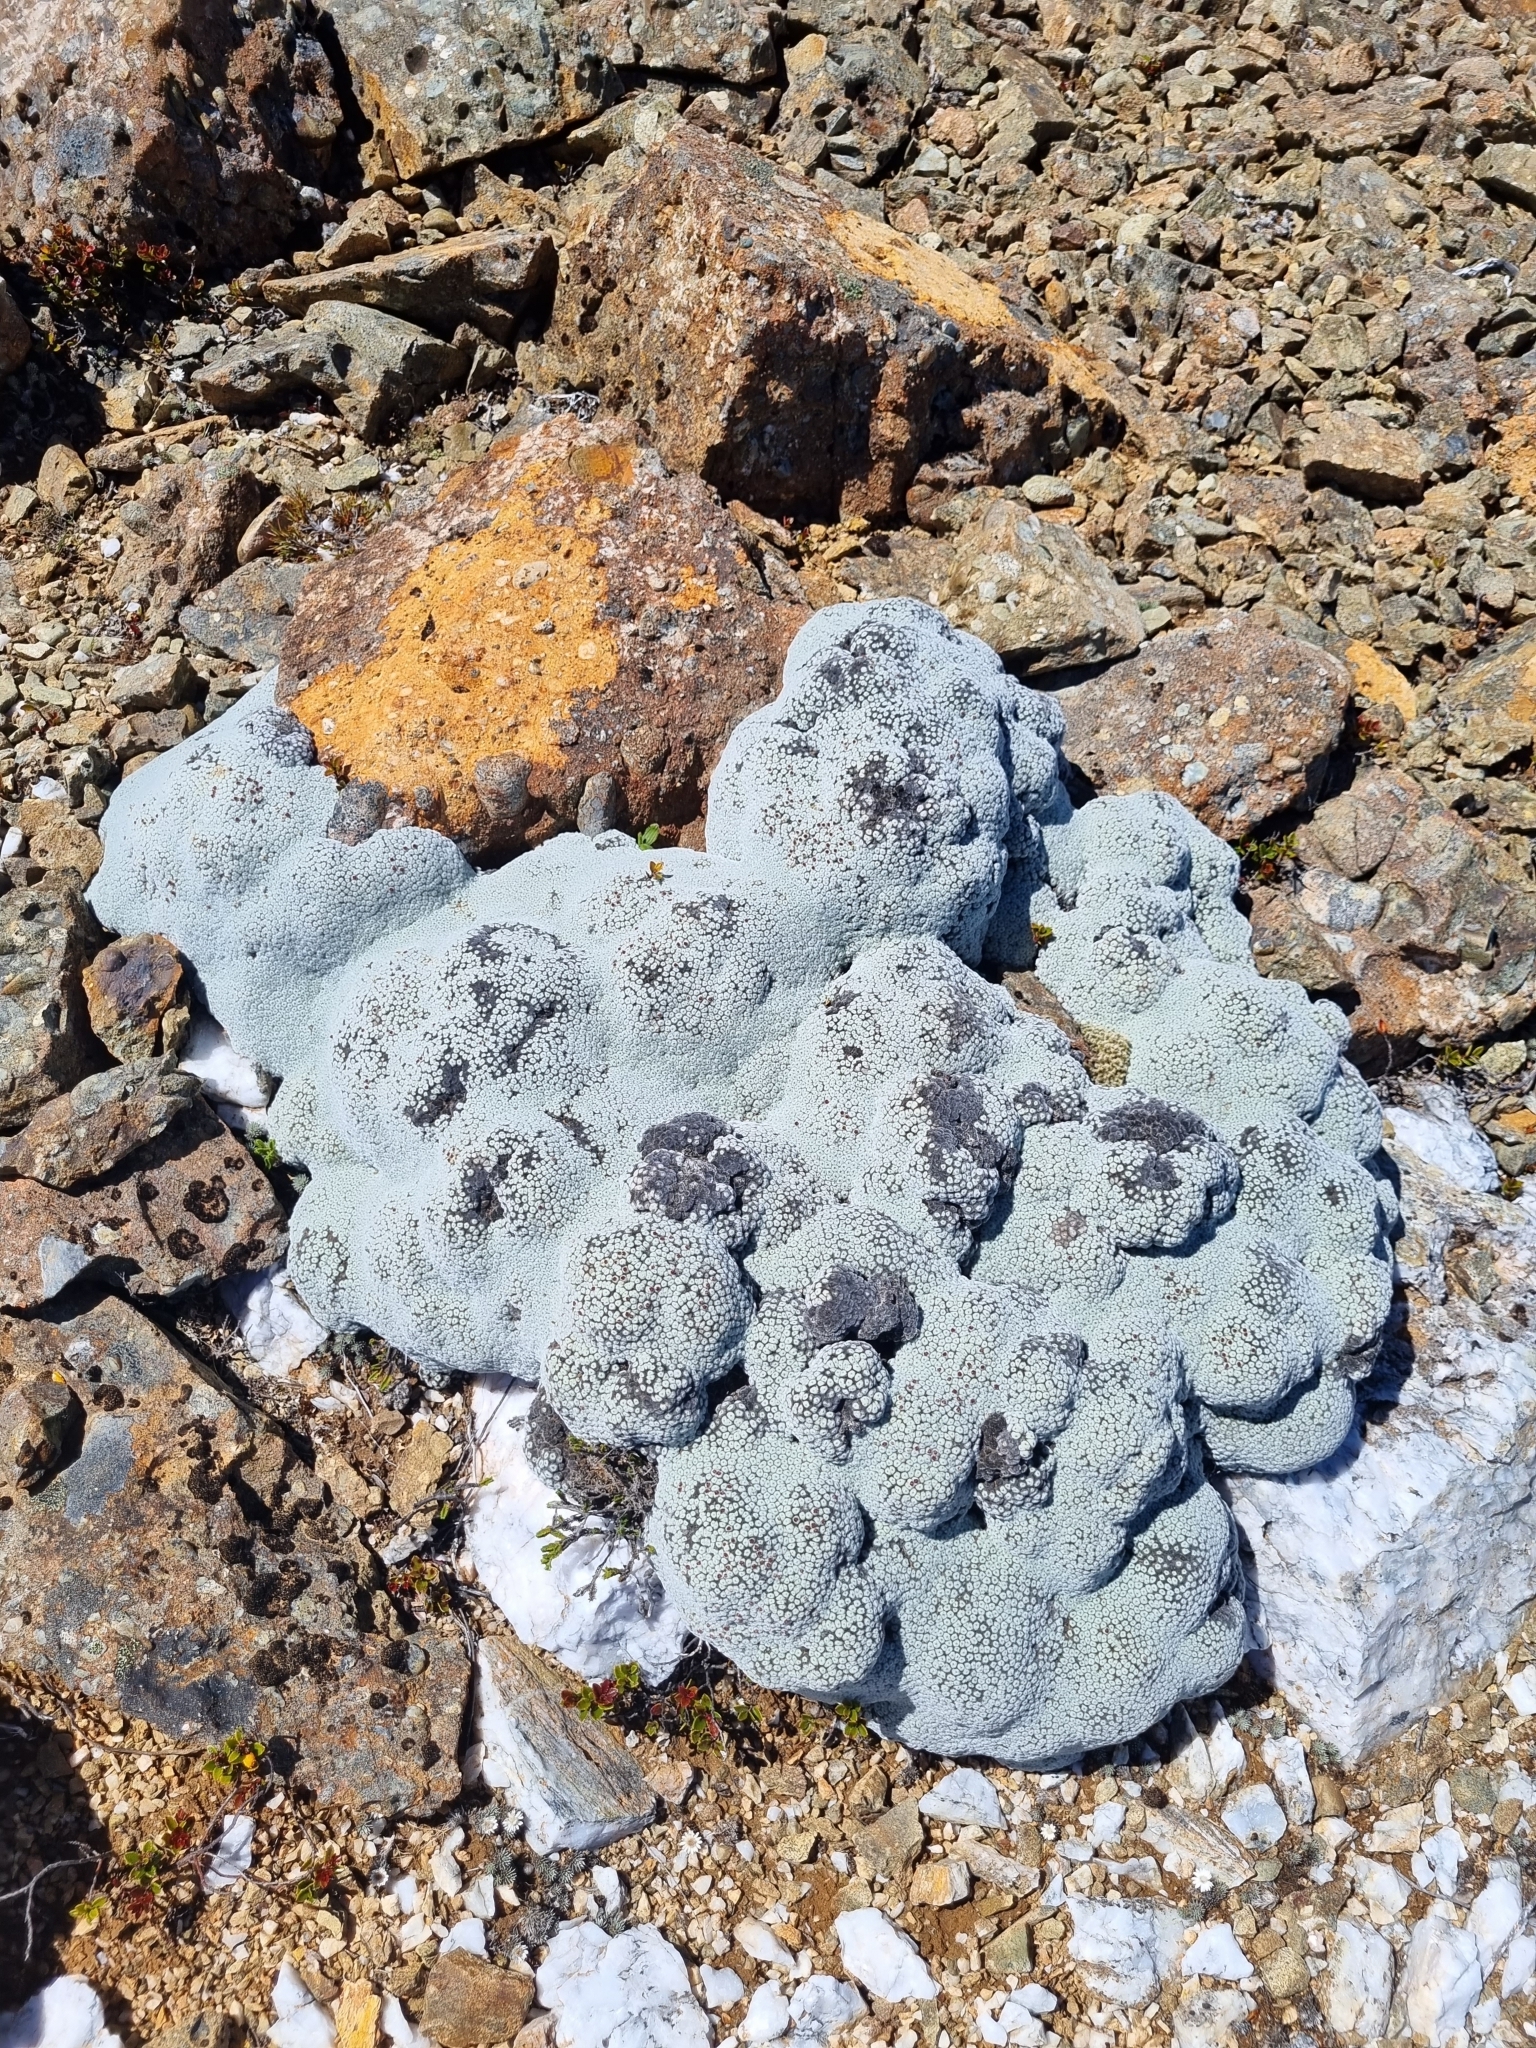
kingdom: Plantae
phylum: Tracheophyta
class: Magnoliopsida
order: Asterales
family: Asteraceae
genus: Raoulia
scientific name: Raoulia eximia
